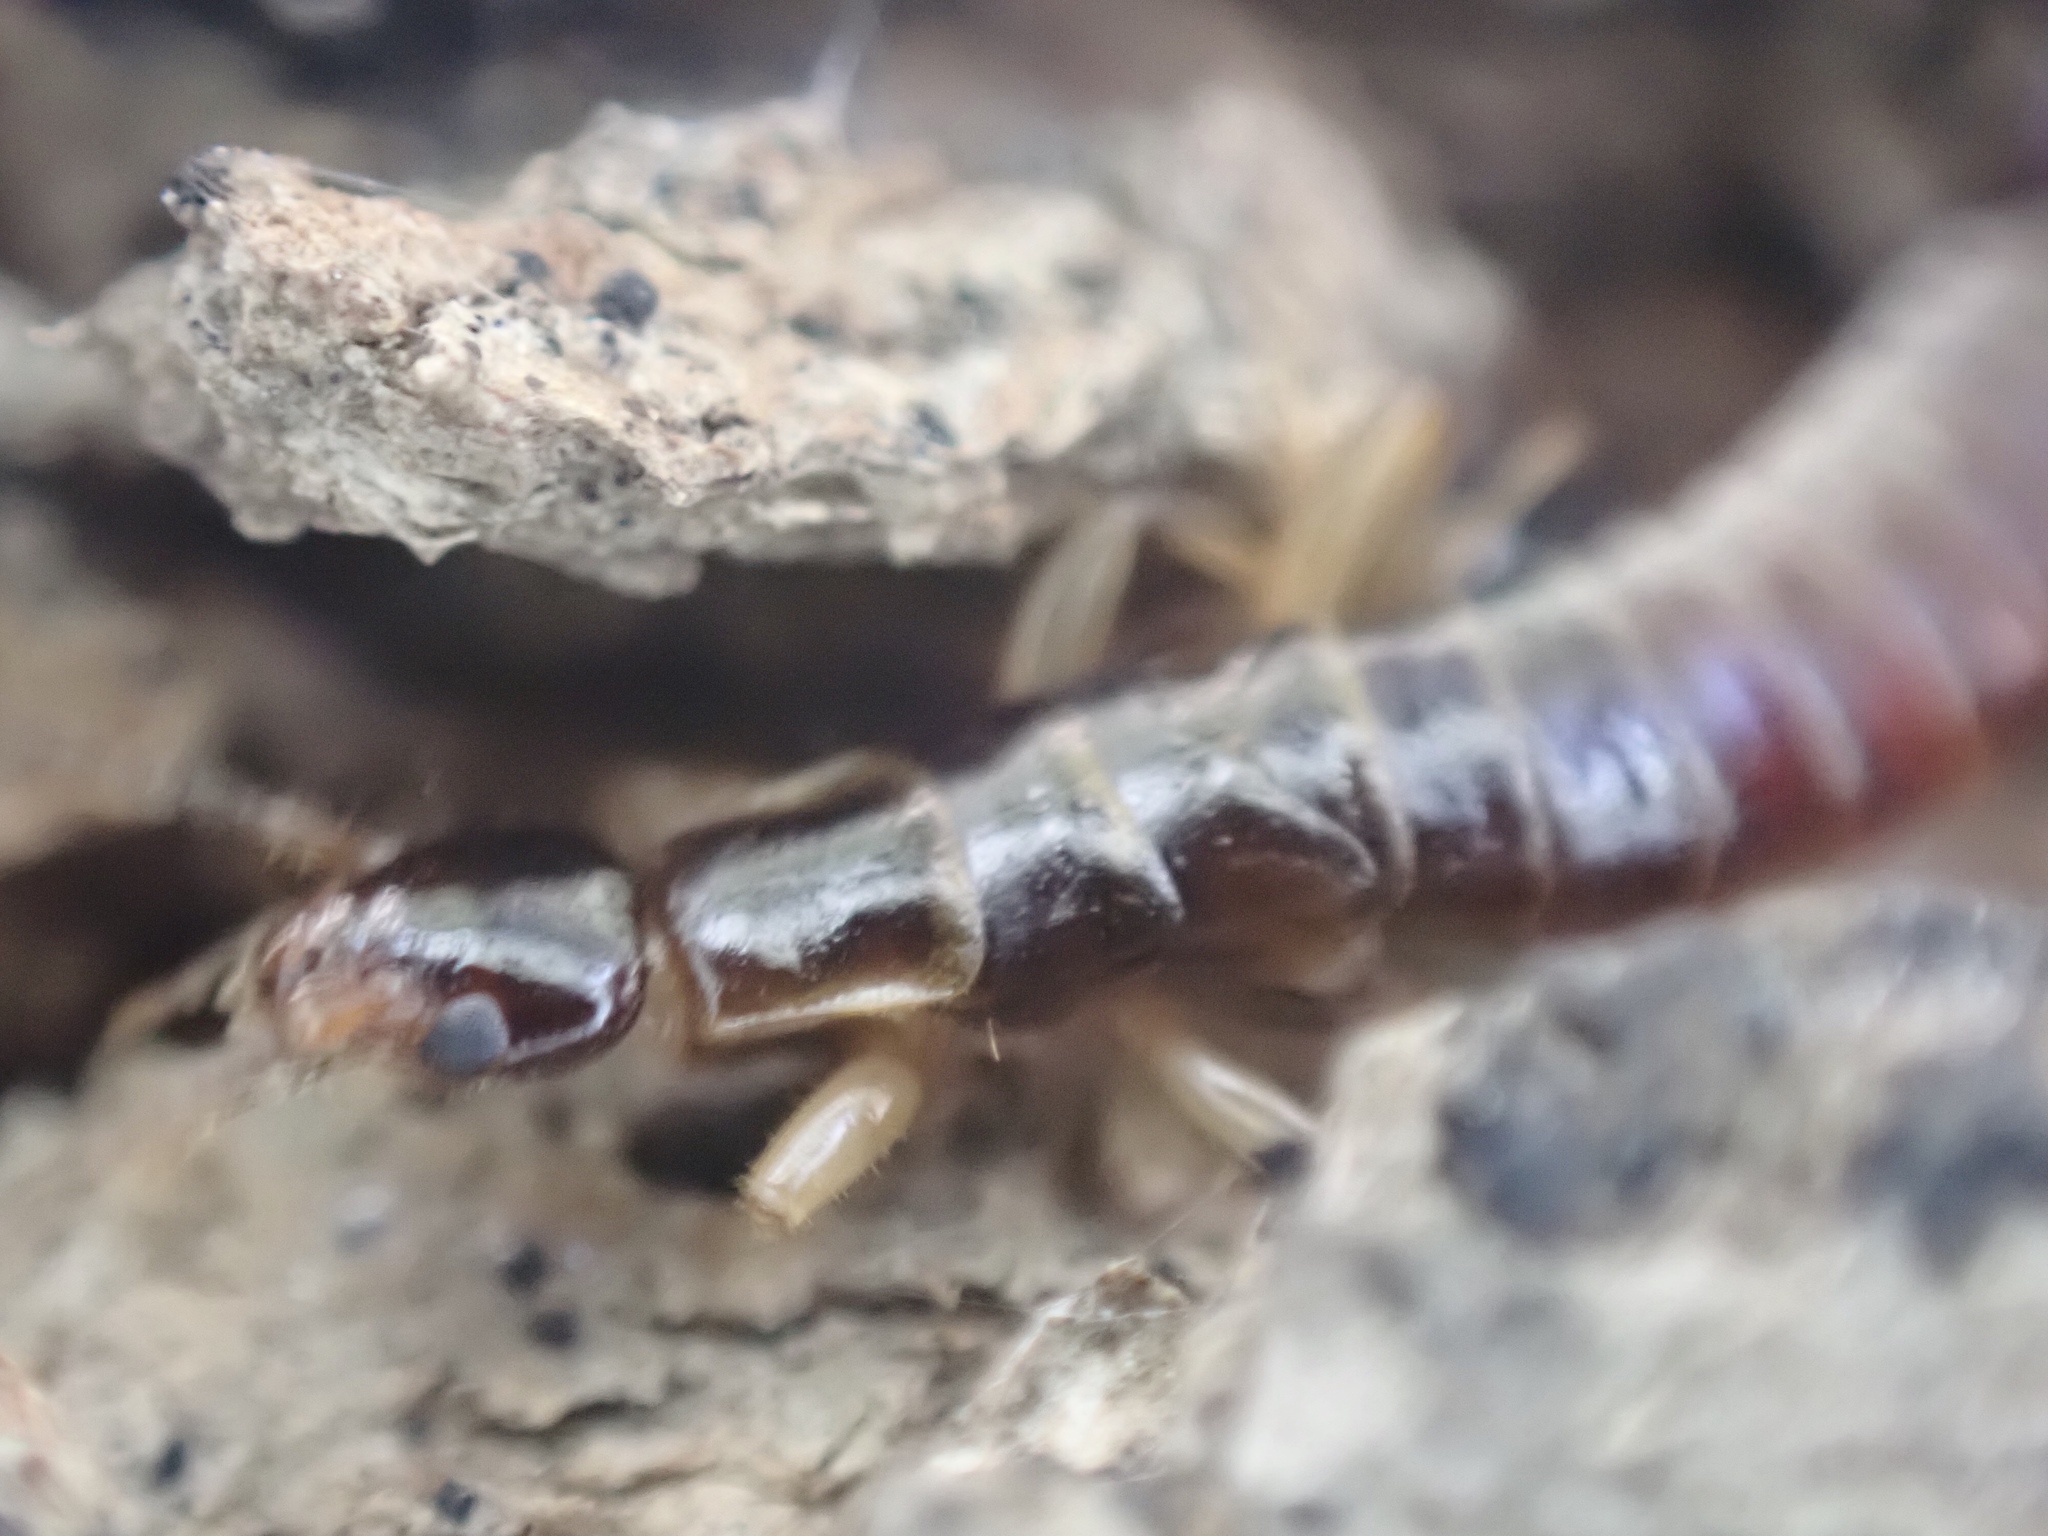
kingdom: Animalia
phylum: Arthropoda
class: Insecta
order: Dermaptera
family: Anisolabididae
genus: Euborellia
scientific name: Euborellia annulipes
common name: Ringlegged earwig
